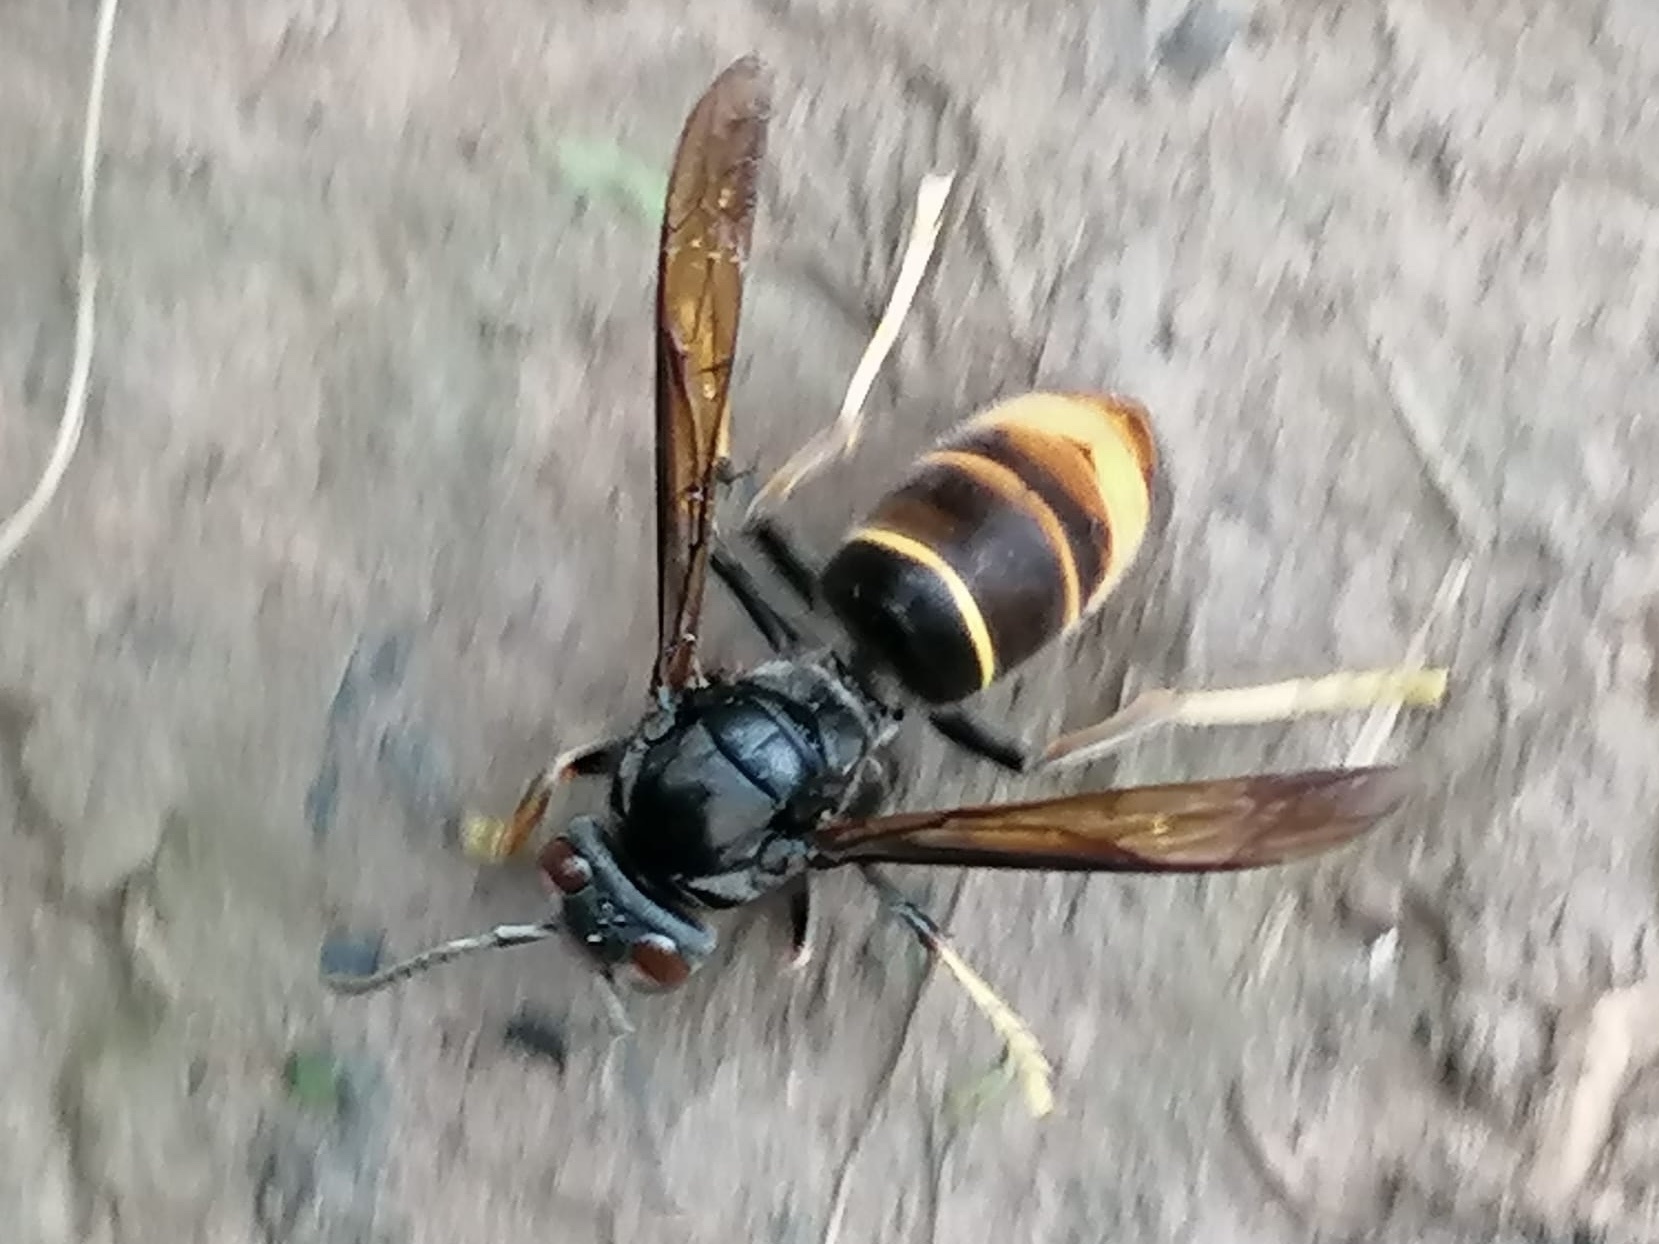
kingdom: Animalia
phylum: Arthropoda
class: Insecta
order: Hymenoptera
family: Vespidae
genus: Vespa
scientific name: Vespa velutina
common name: Asian hornet
